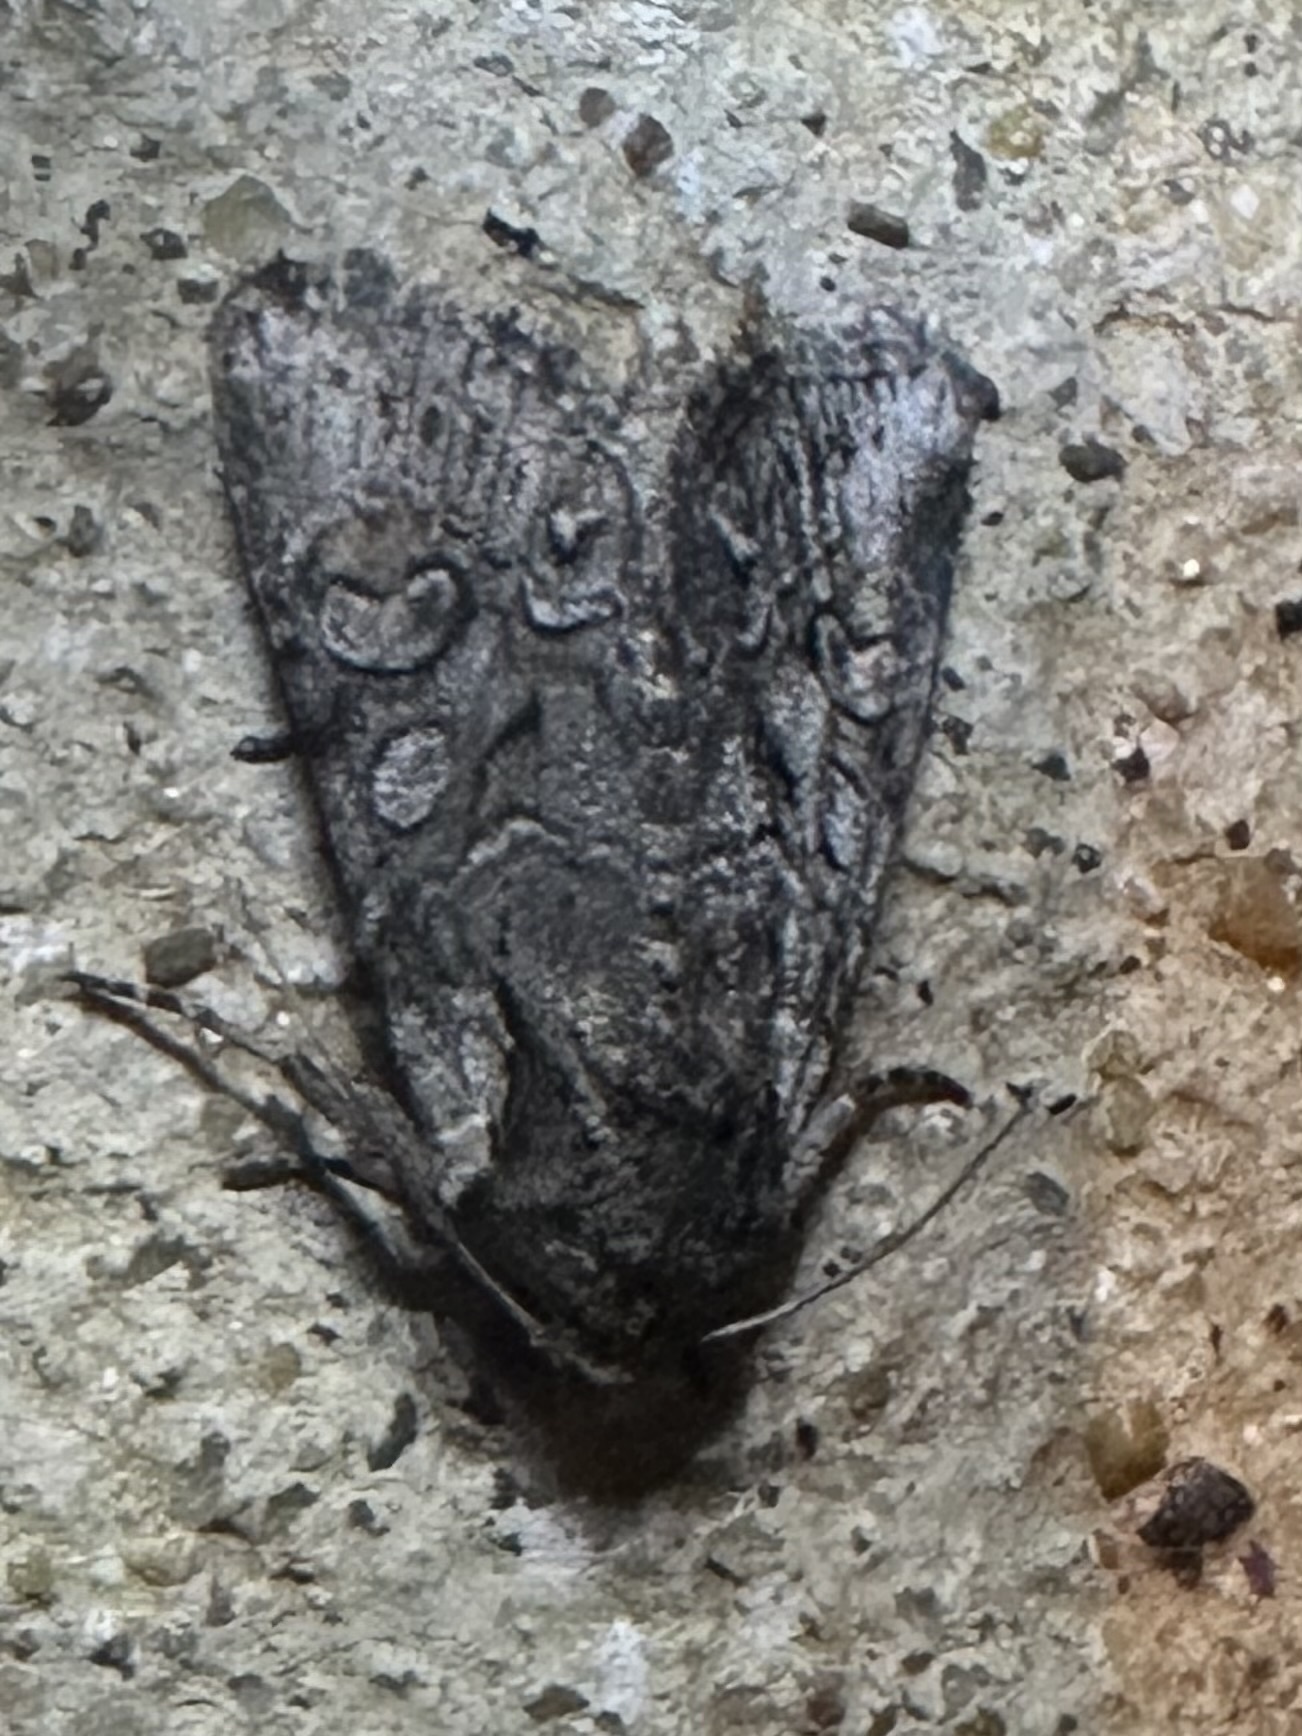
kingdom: Animalia
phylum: Arthropoda
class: Insecta
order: Lepidoptera
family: Noctuidae
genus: Raphia
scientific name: Raphia frater
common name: Brother
